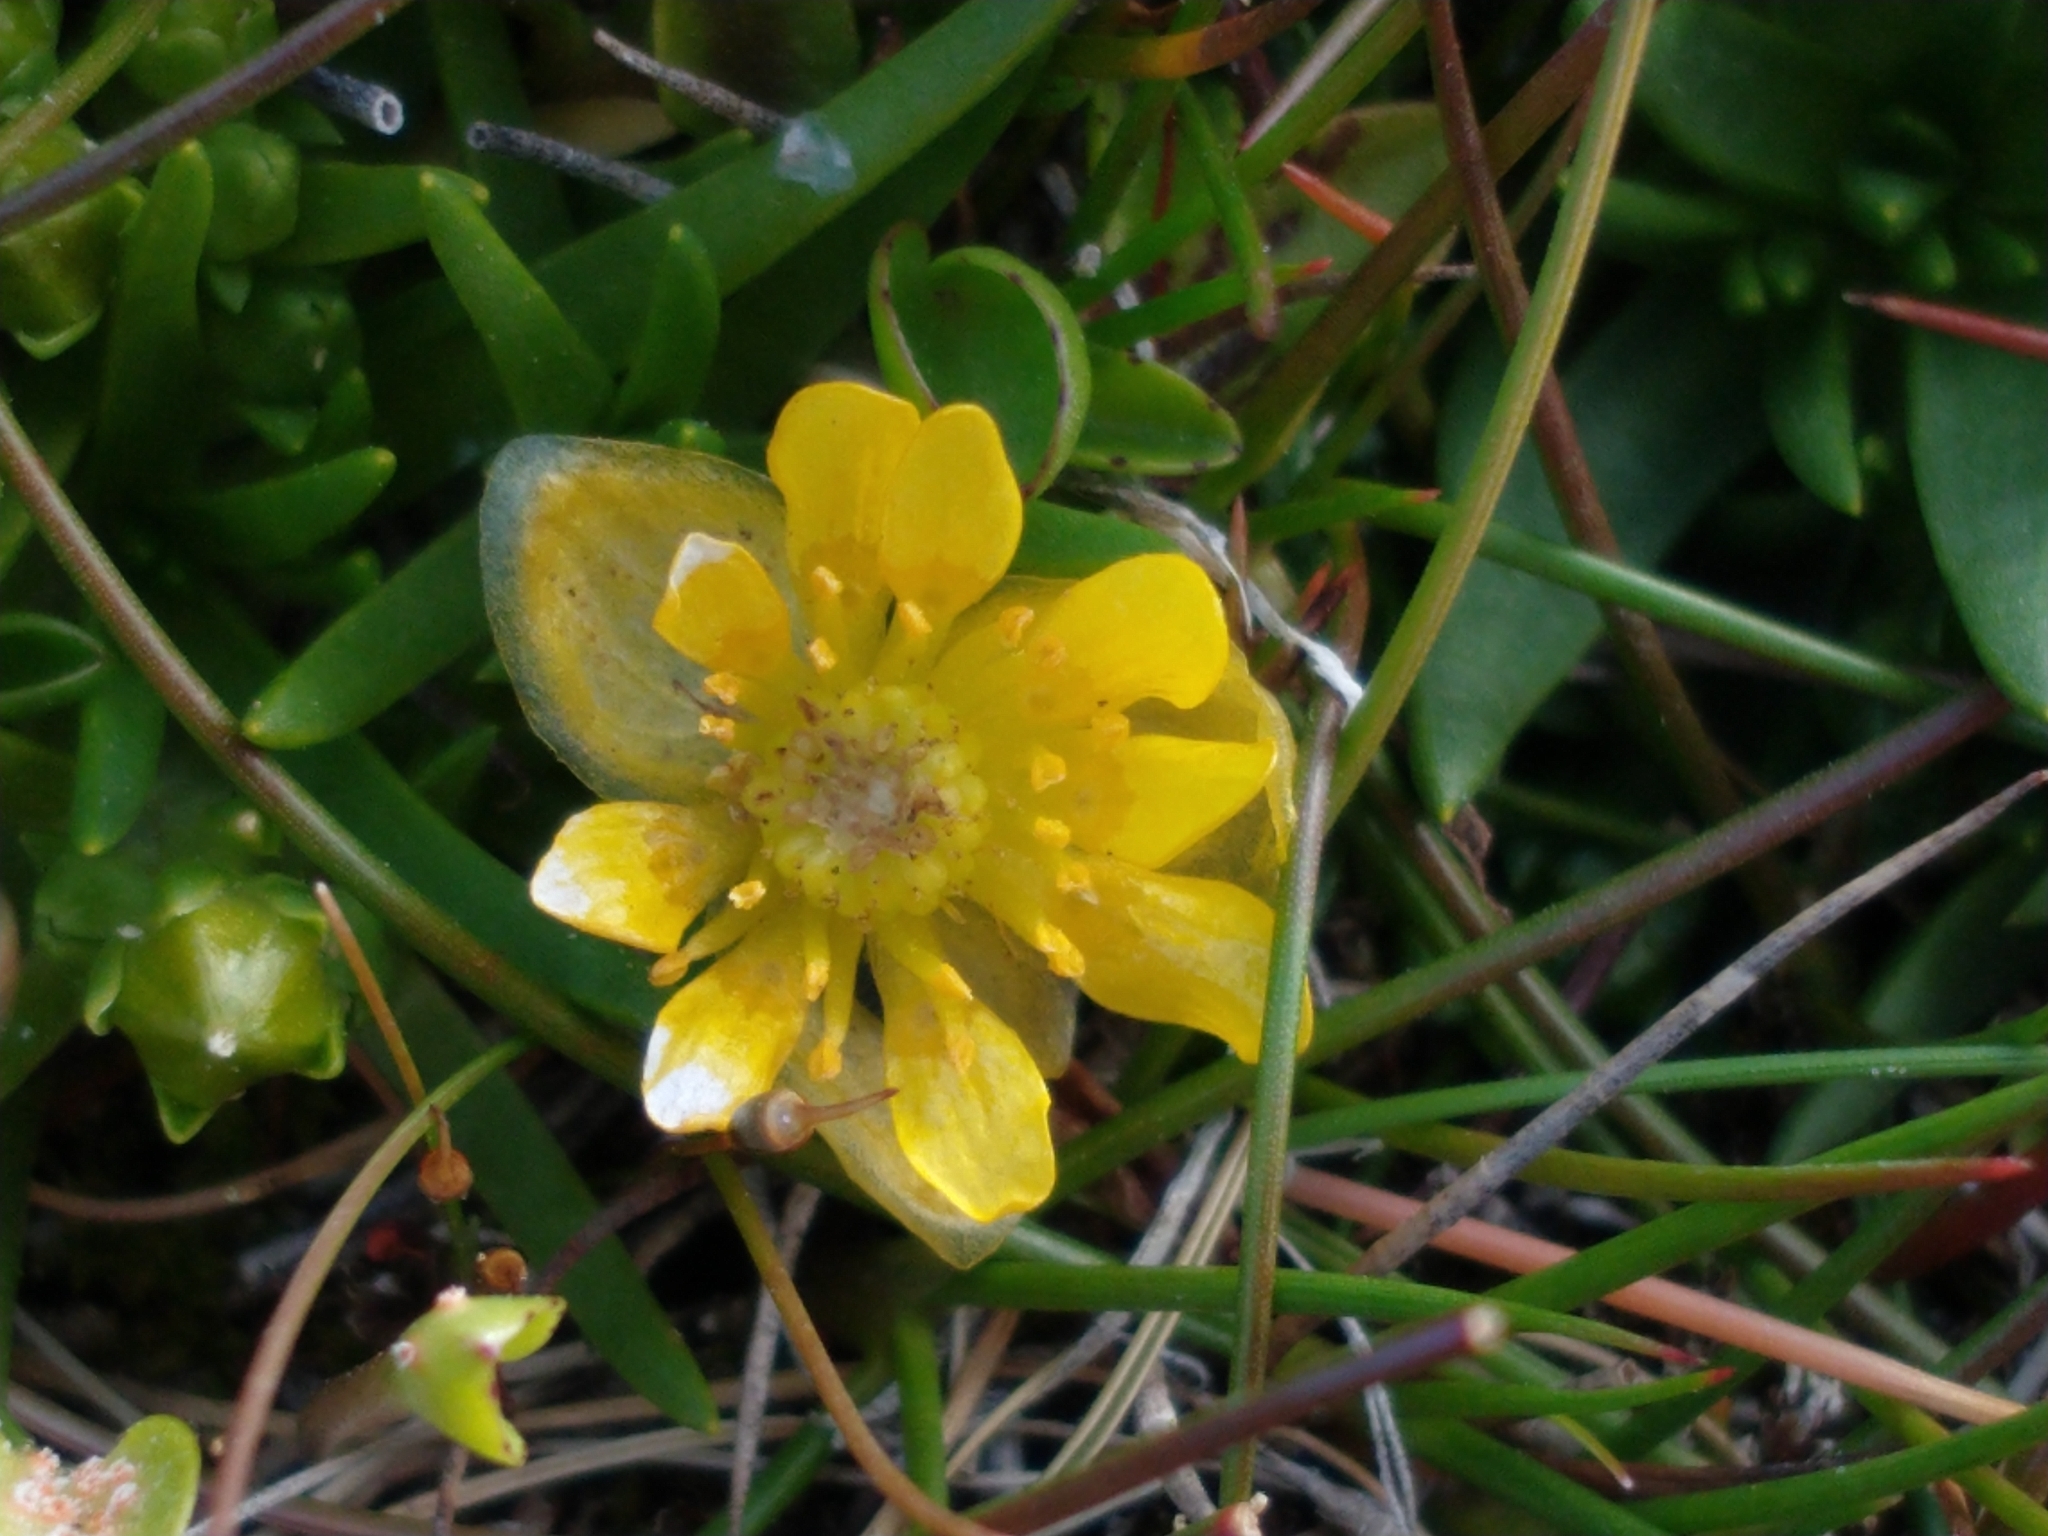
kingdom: Plantae
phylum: Tracheophyta
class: Magnoliopsida
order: Ranunculales
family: Ranunculaceae
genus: Halerpestes
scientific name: Halerpestes uniflora
